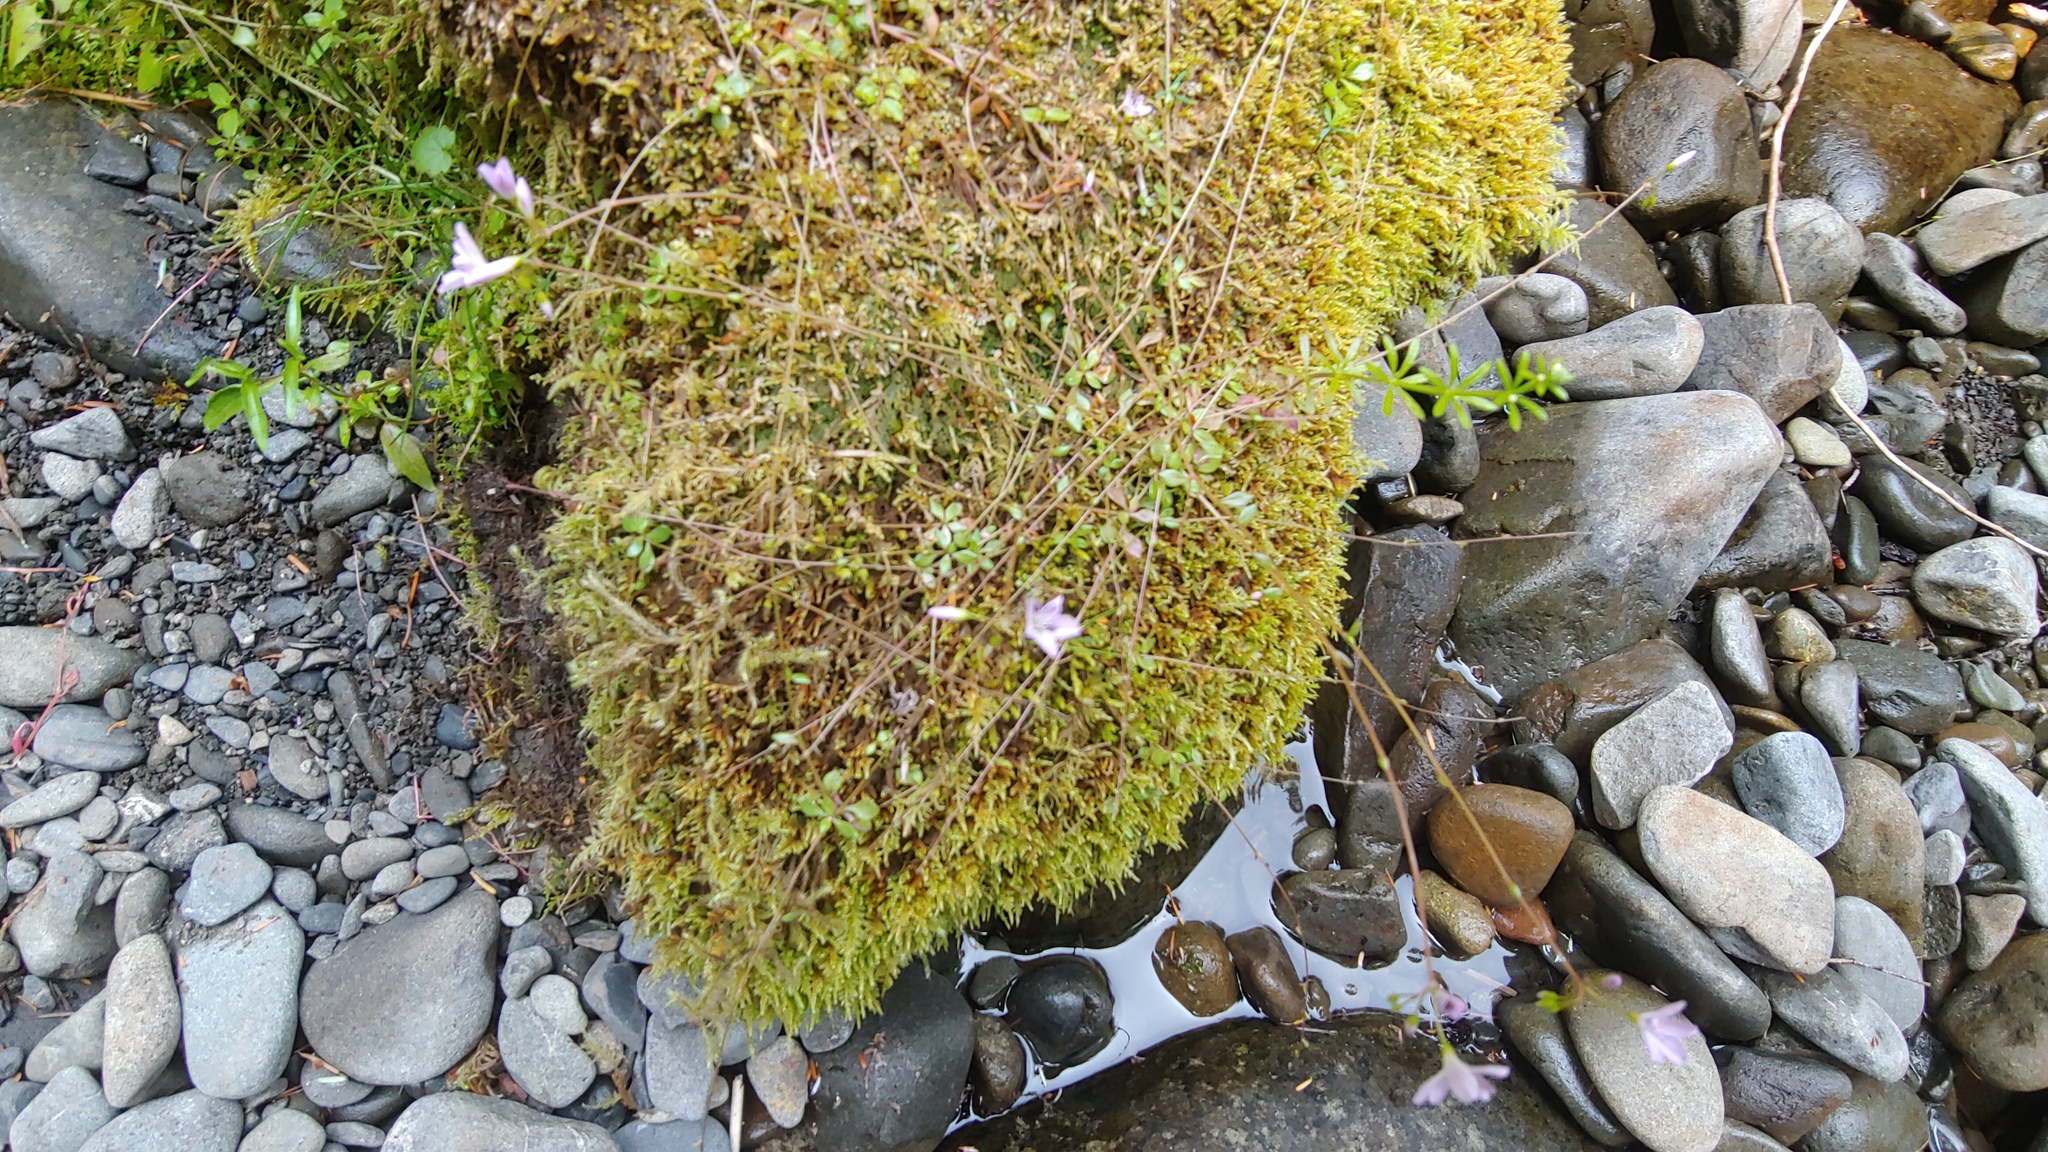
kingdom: Plantae
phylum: Tracheophyta
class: Magnoliopsida
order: Caryophyllales
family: Montiaceae
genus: Montia
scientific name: Montia parvifolia
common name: Small-leaved blinks
